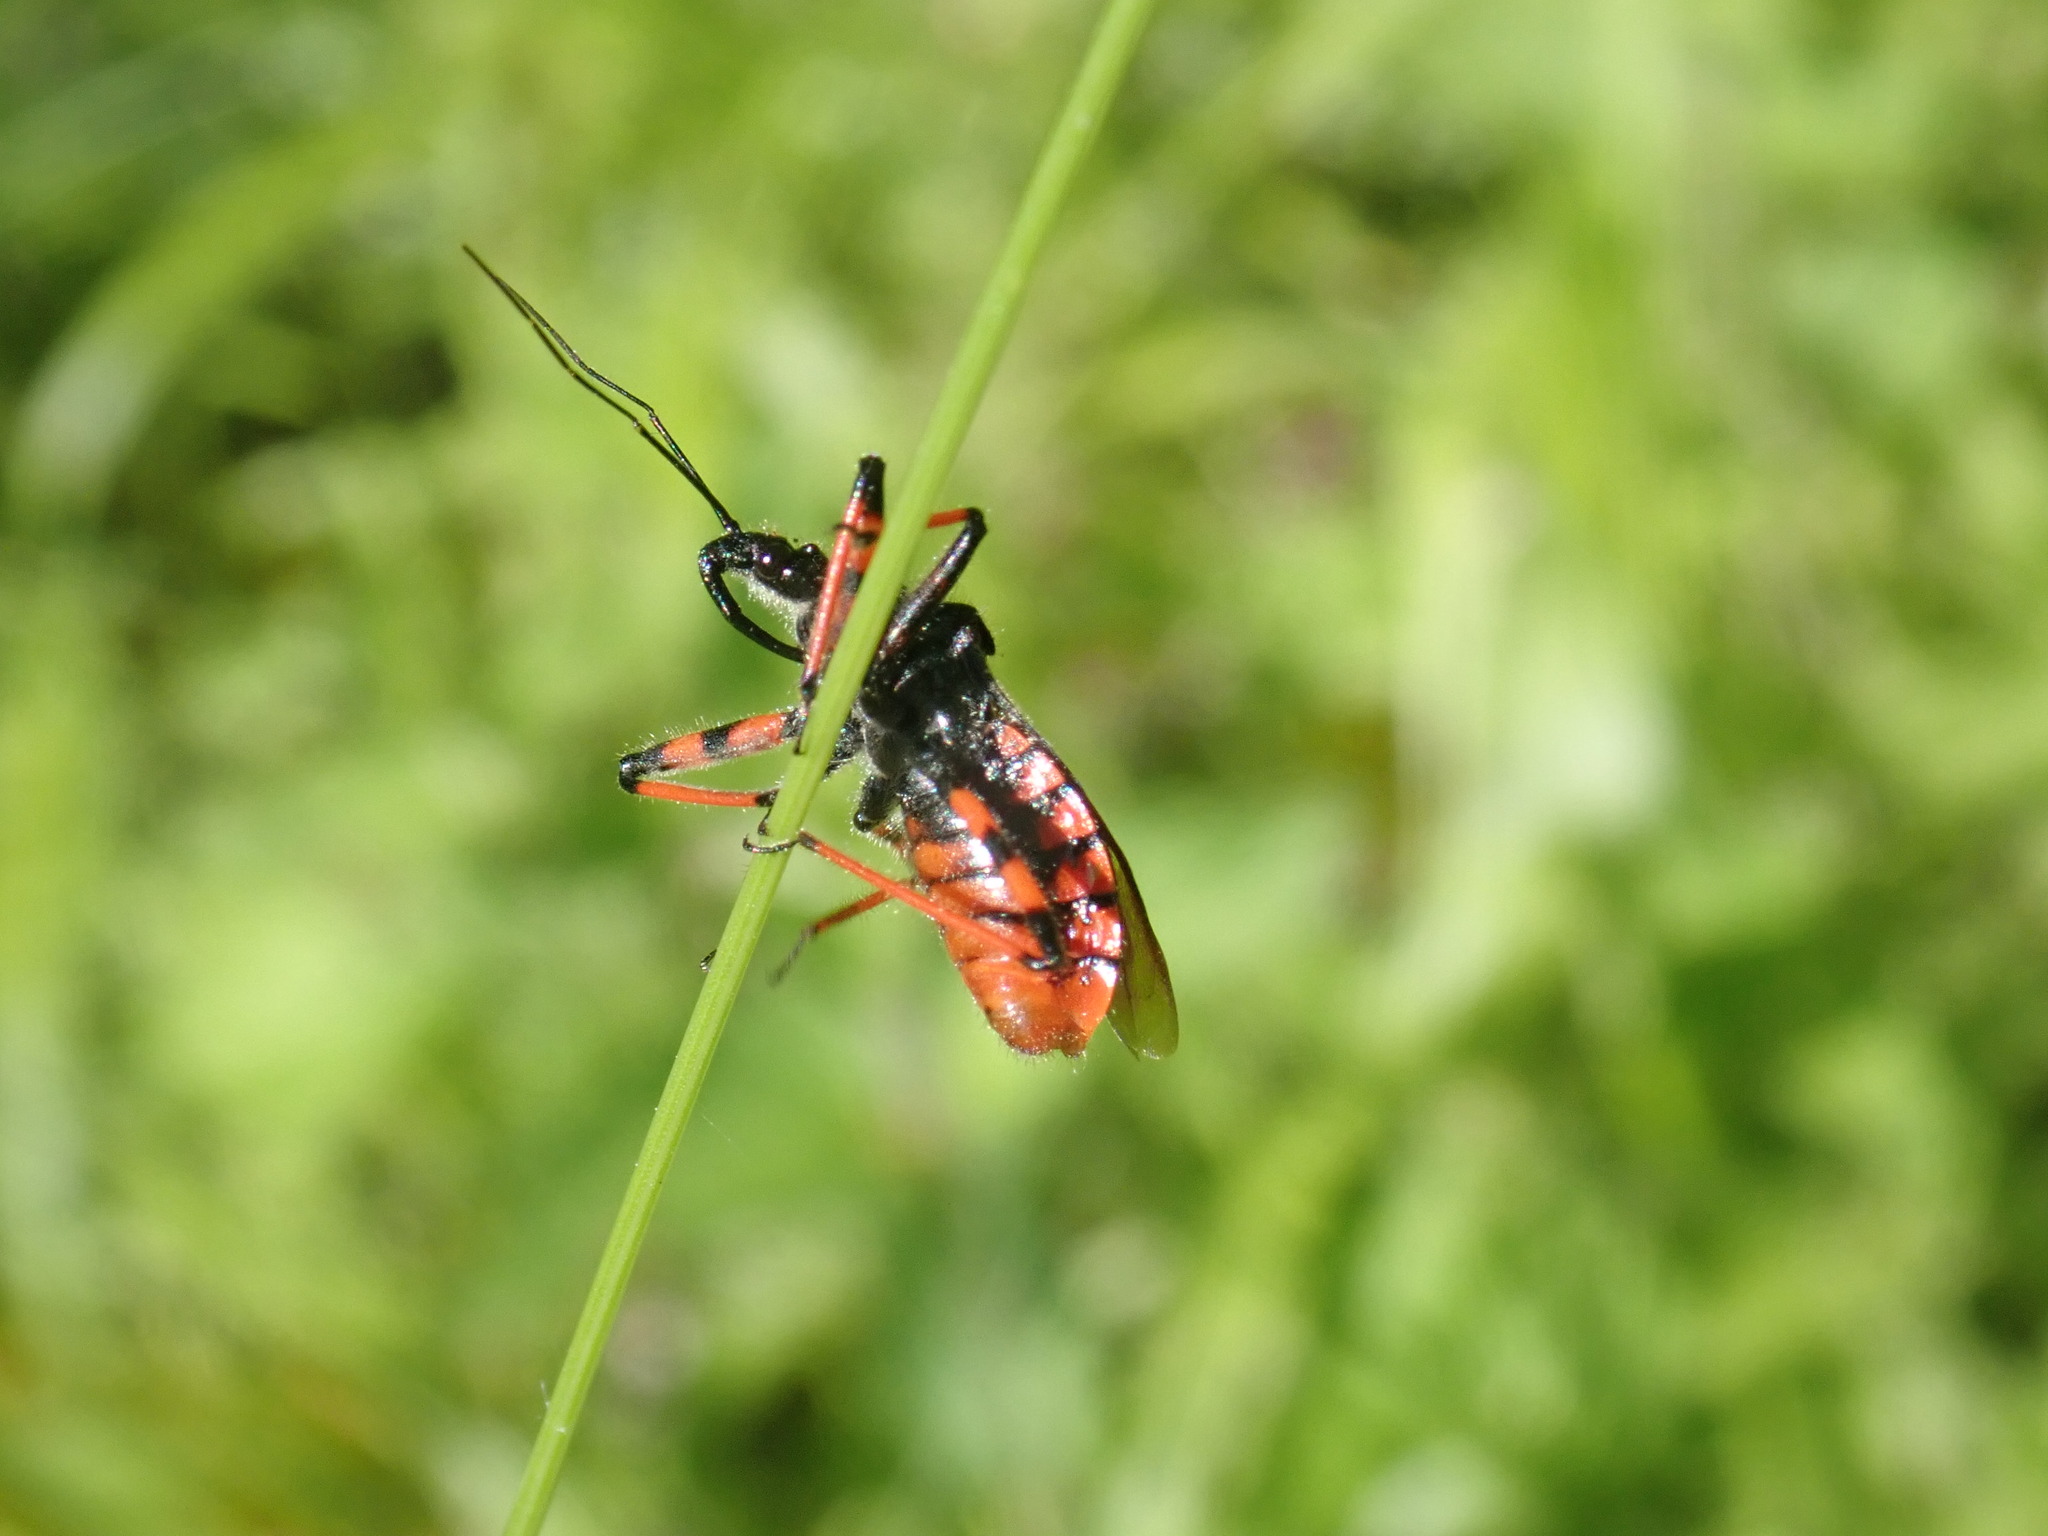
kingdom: Animalia
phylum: Arthropoda
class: Insecta
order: Hemiptera
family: Reduviidae
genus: Rhynocoris
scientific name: Rhynocoris annulatus
